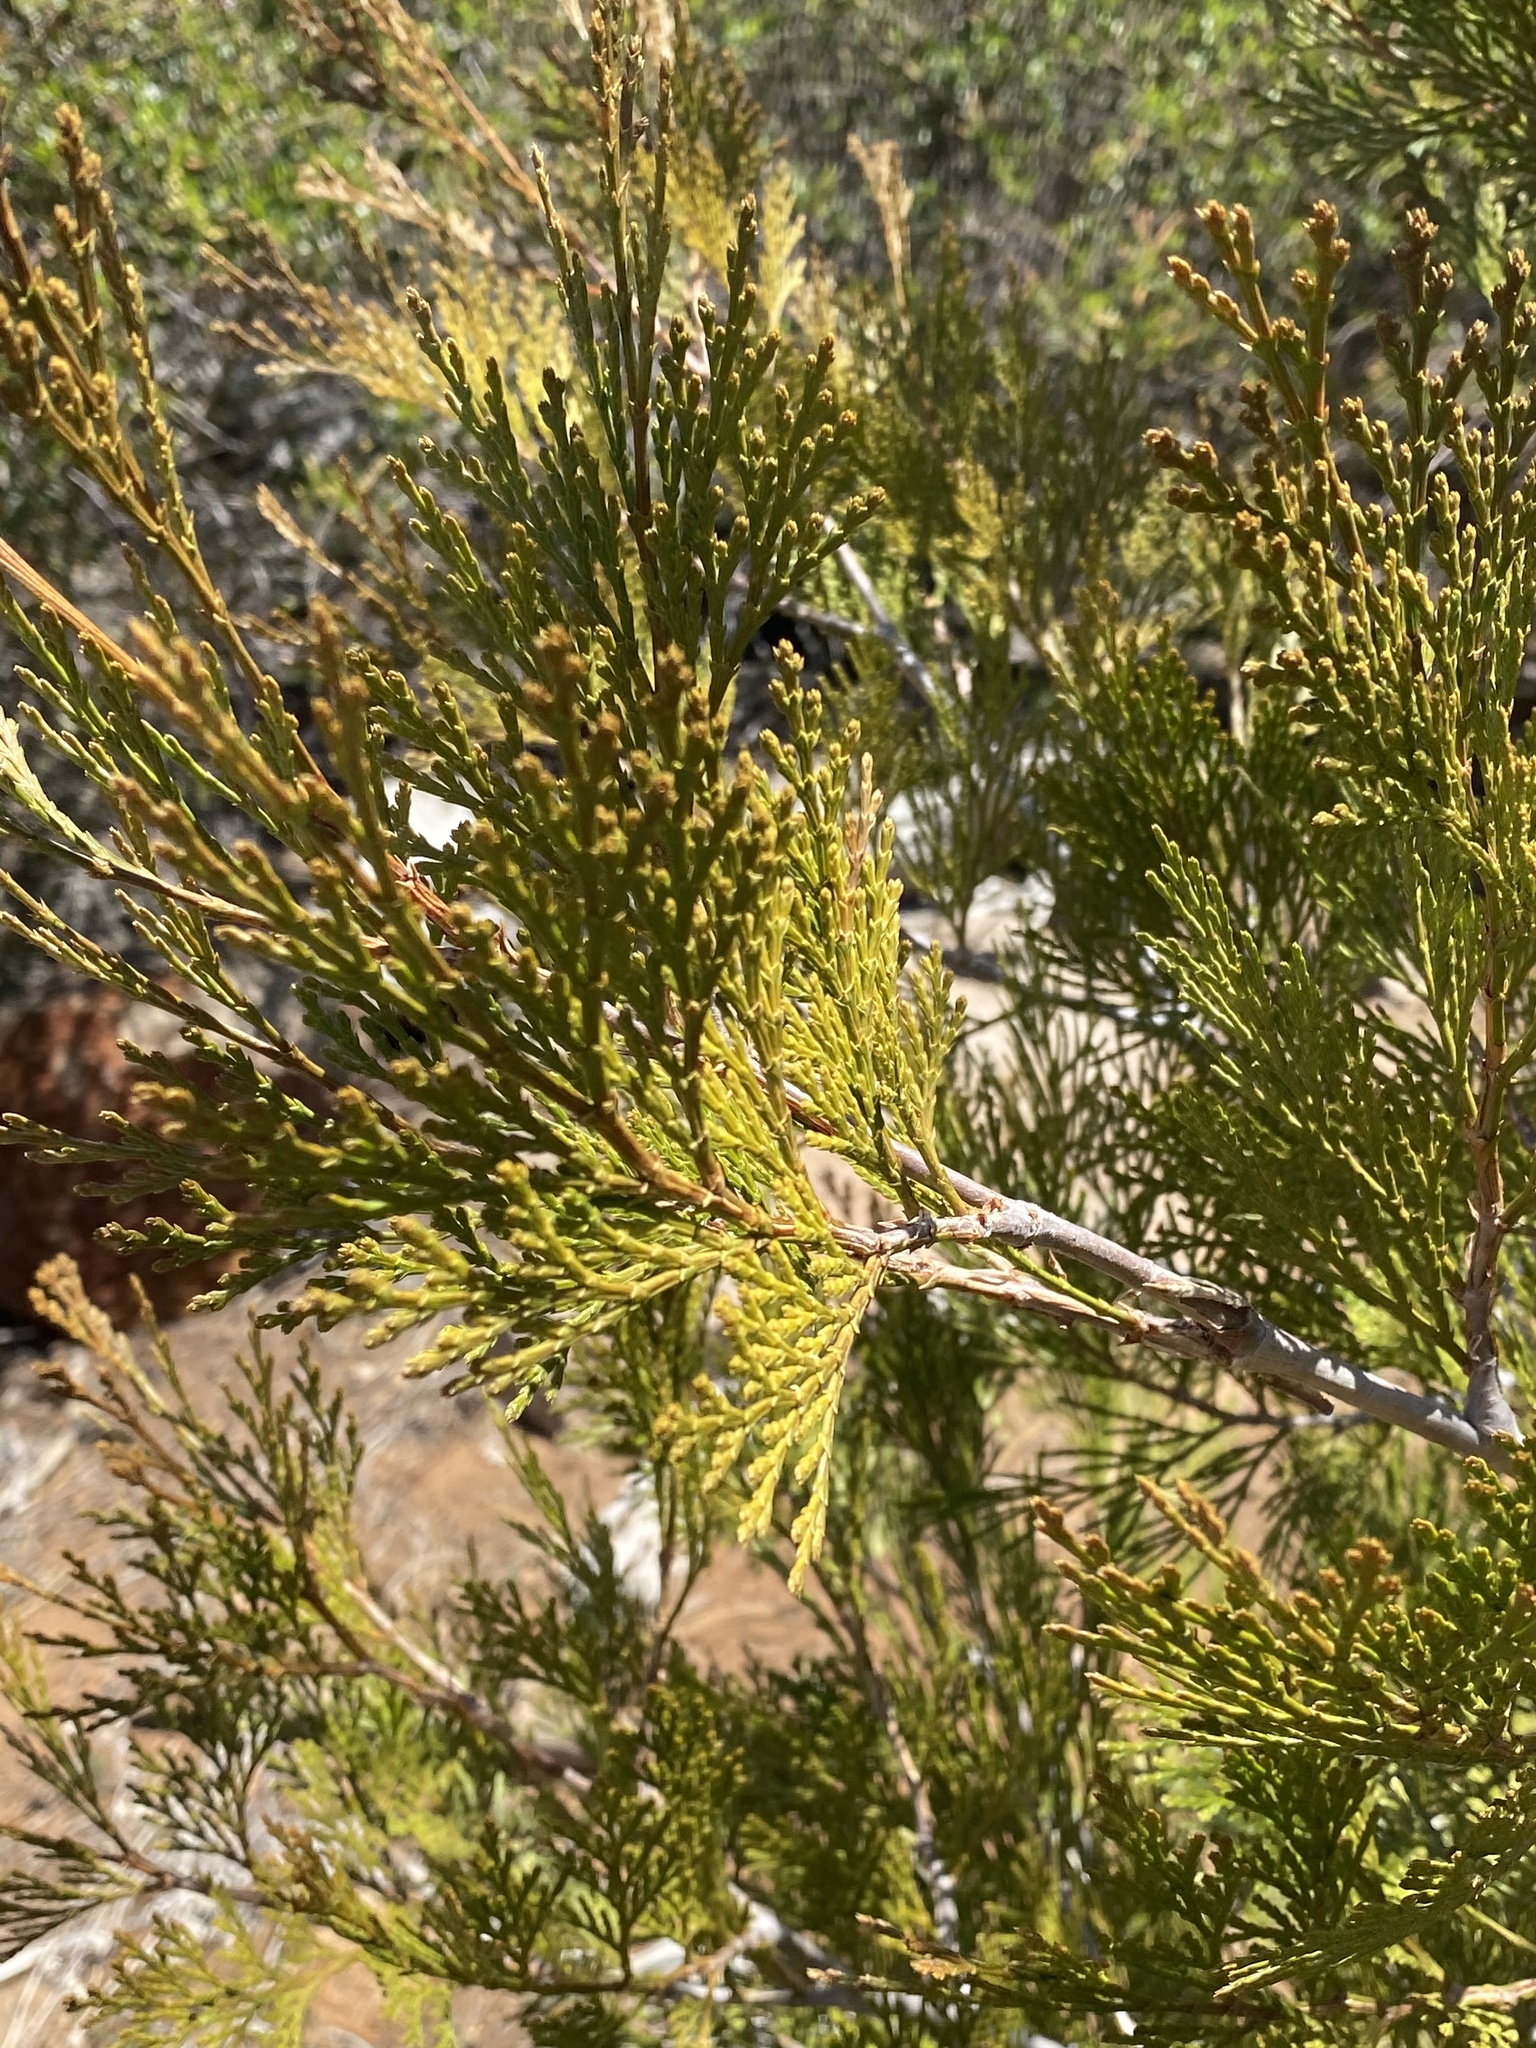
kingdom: Plantae
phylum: Tracheophyta
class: Pinopsida
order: Pinales
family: Cupressaceae
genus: Calocedrus
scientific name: Calocedrus decurrens
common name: Californian incense-cedar
